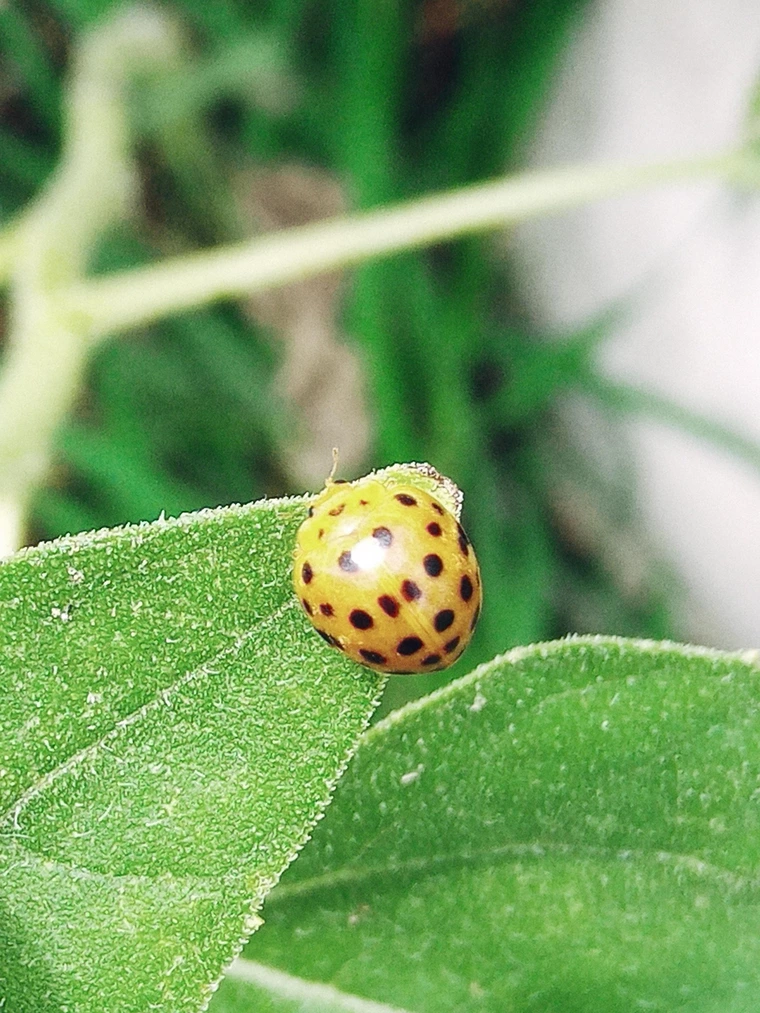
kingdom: Animalia
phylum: Arthropoda
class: Insecta
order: Coleoptera
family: Coccinellidae
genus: Henosepilachna
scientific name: Henosepilachna vigintioctopunctata
